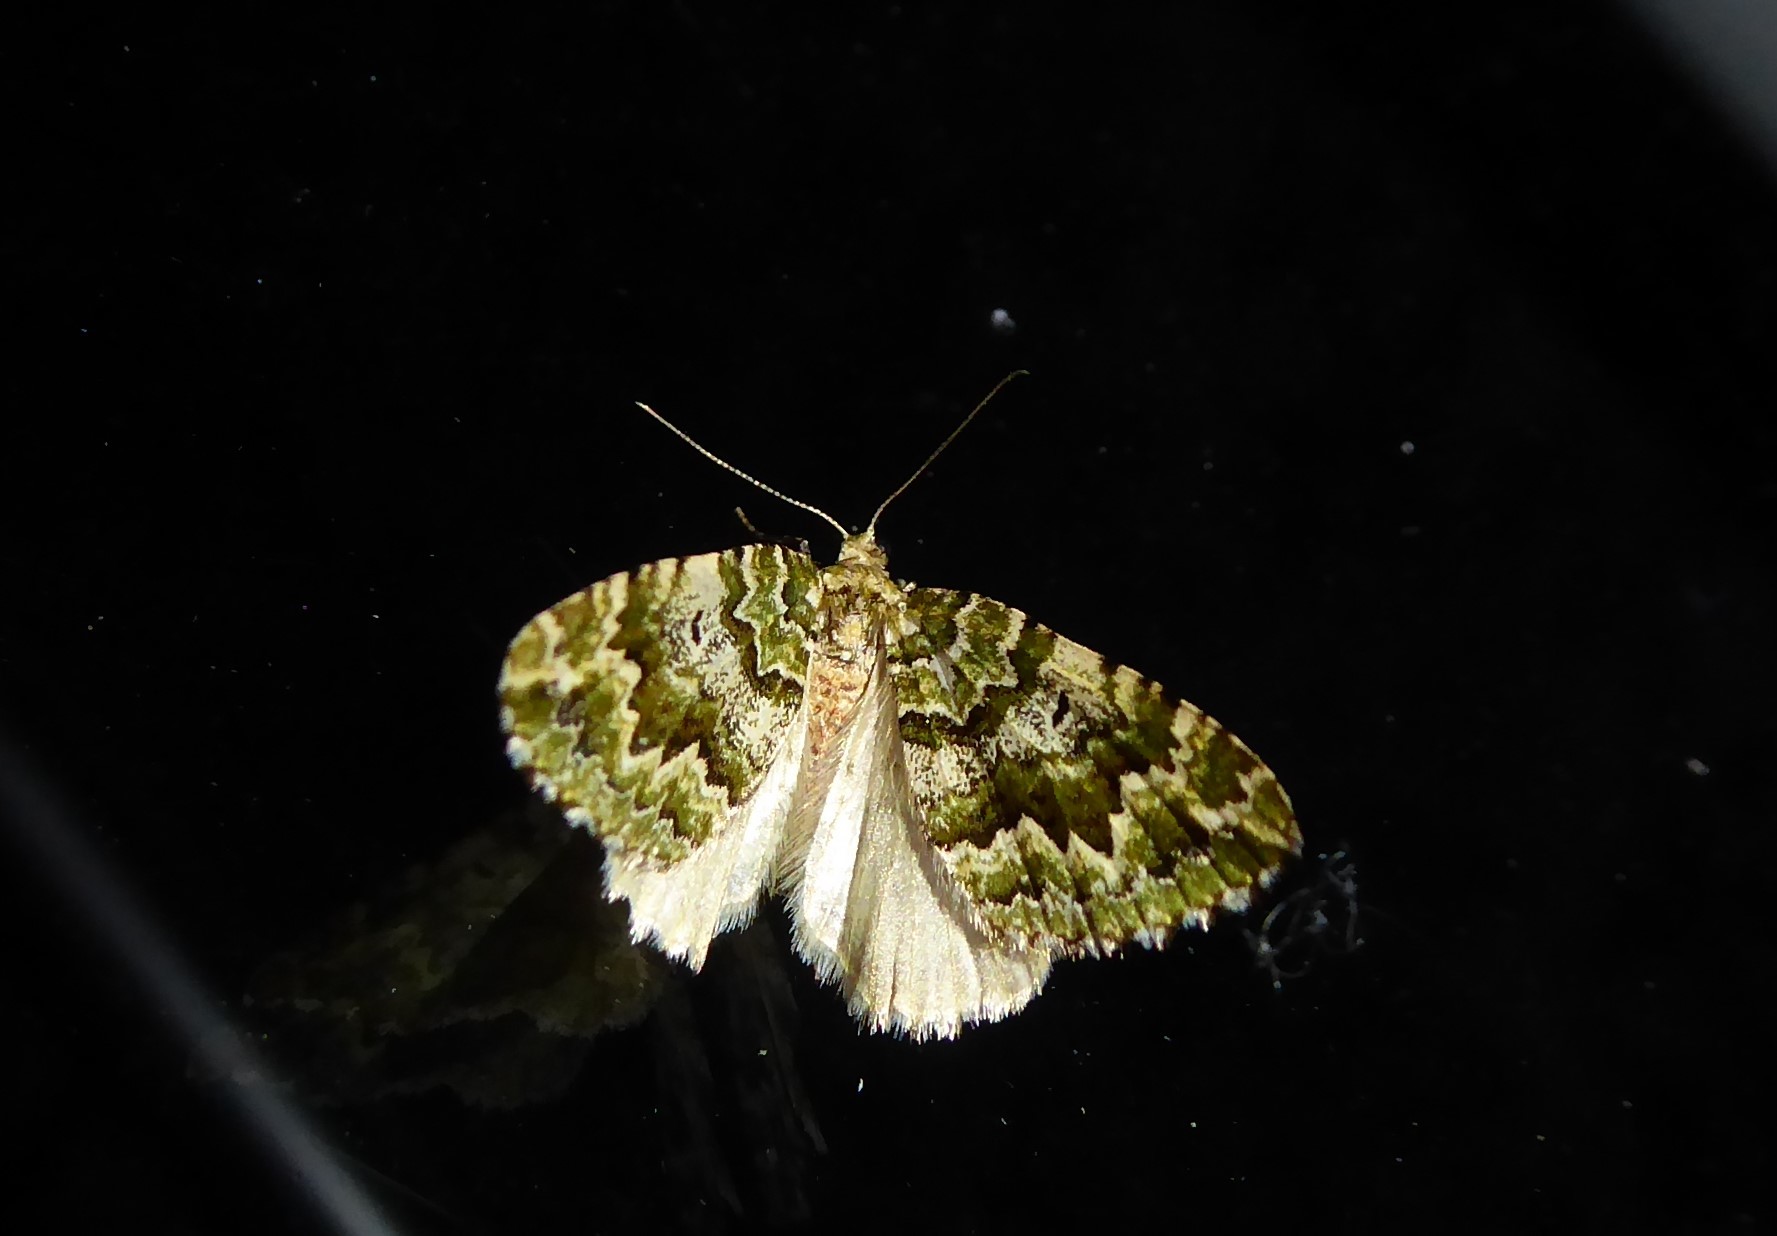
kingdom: Animalia
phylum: Arthropoda
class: Insecta
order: Lepidoptera
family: Geometridae
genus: Asaphodes
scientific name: Asaphodes beata
